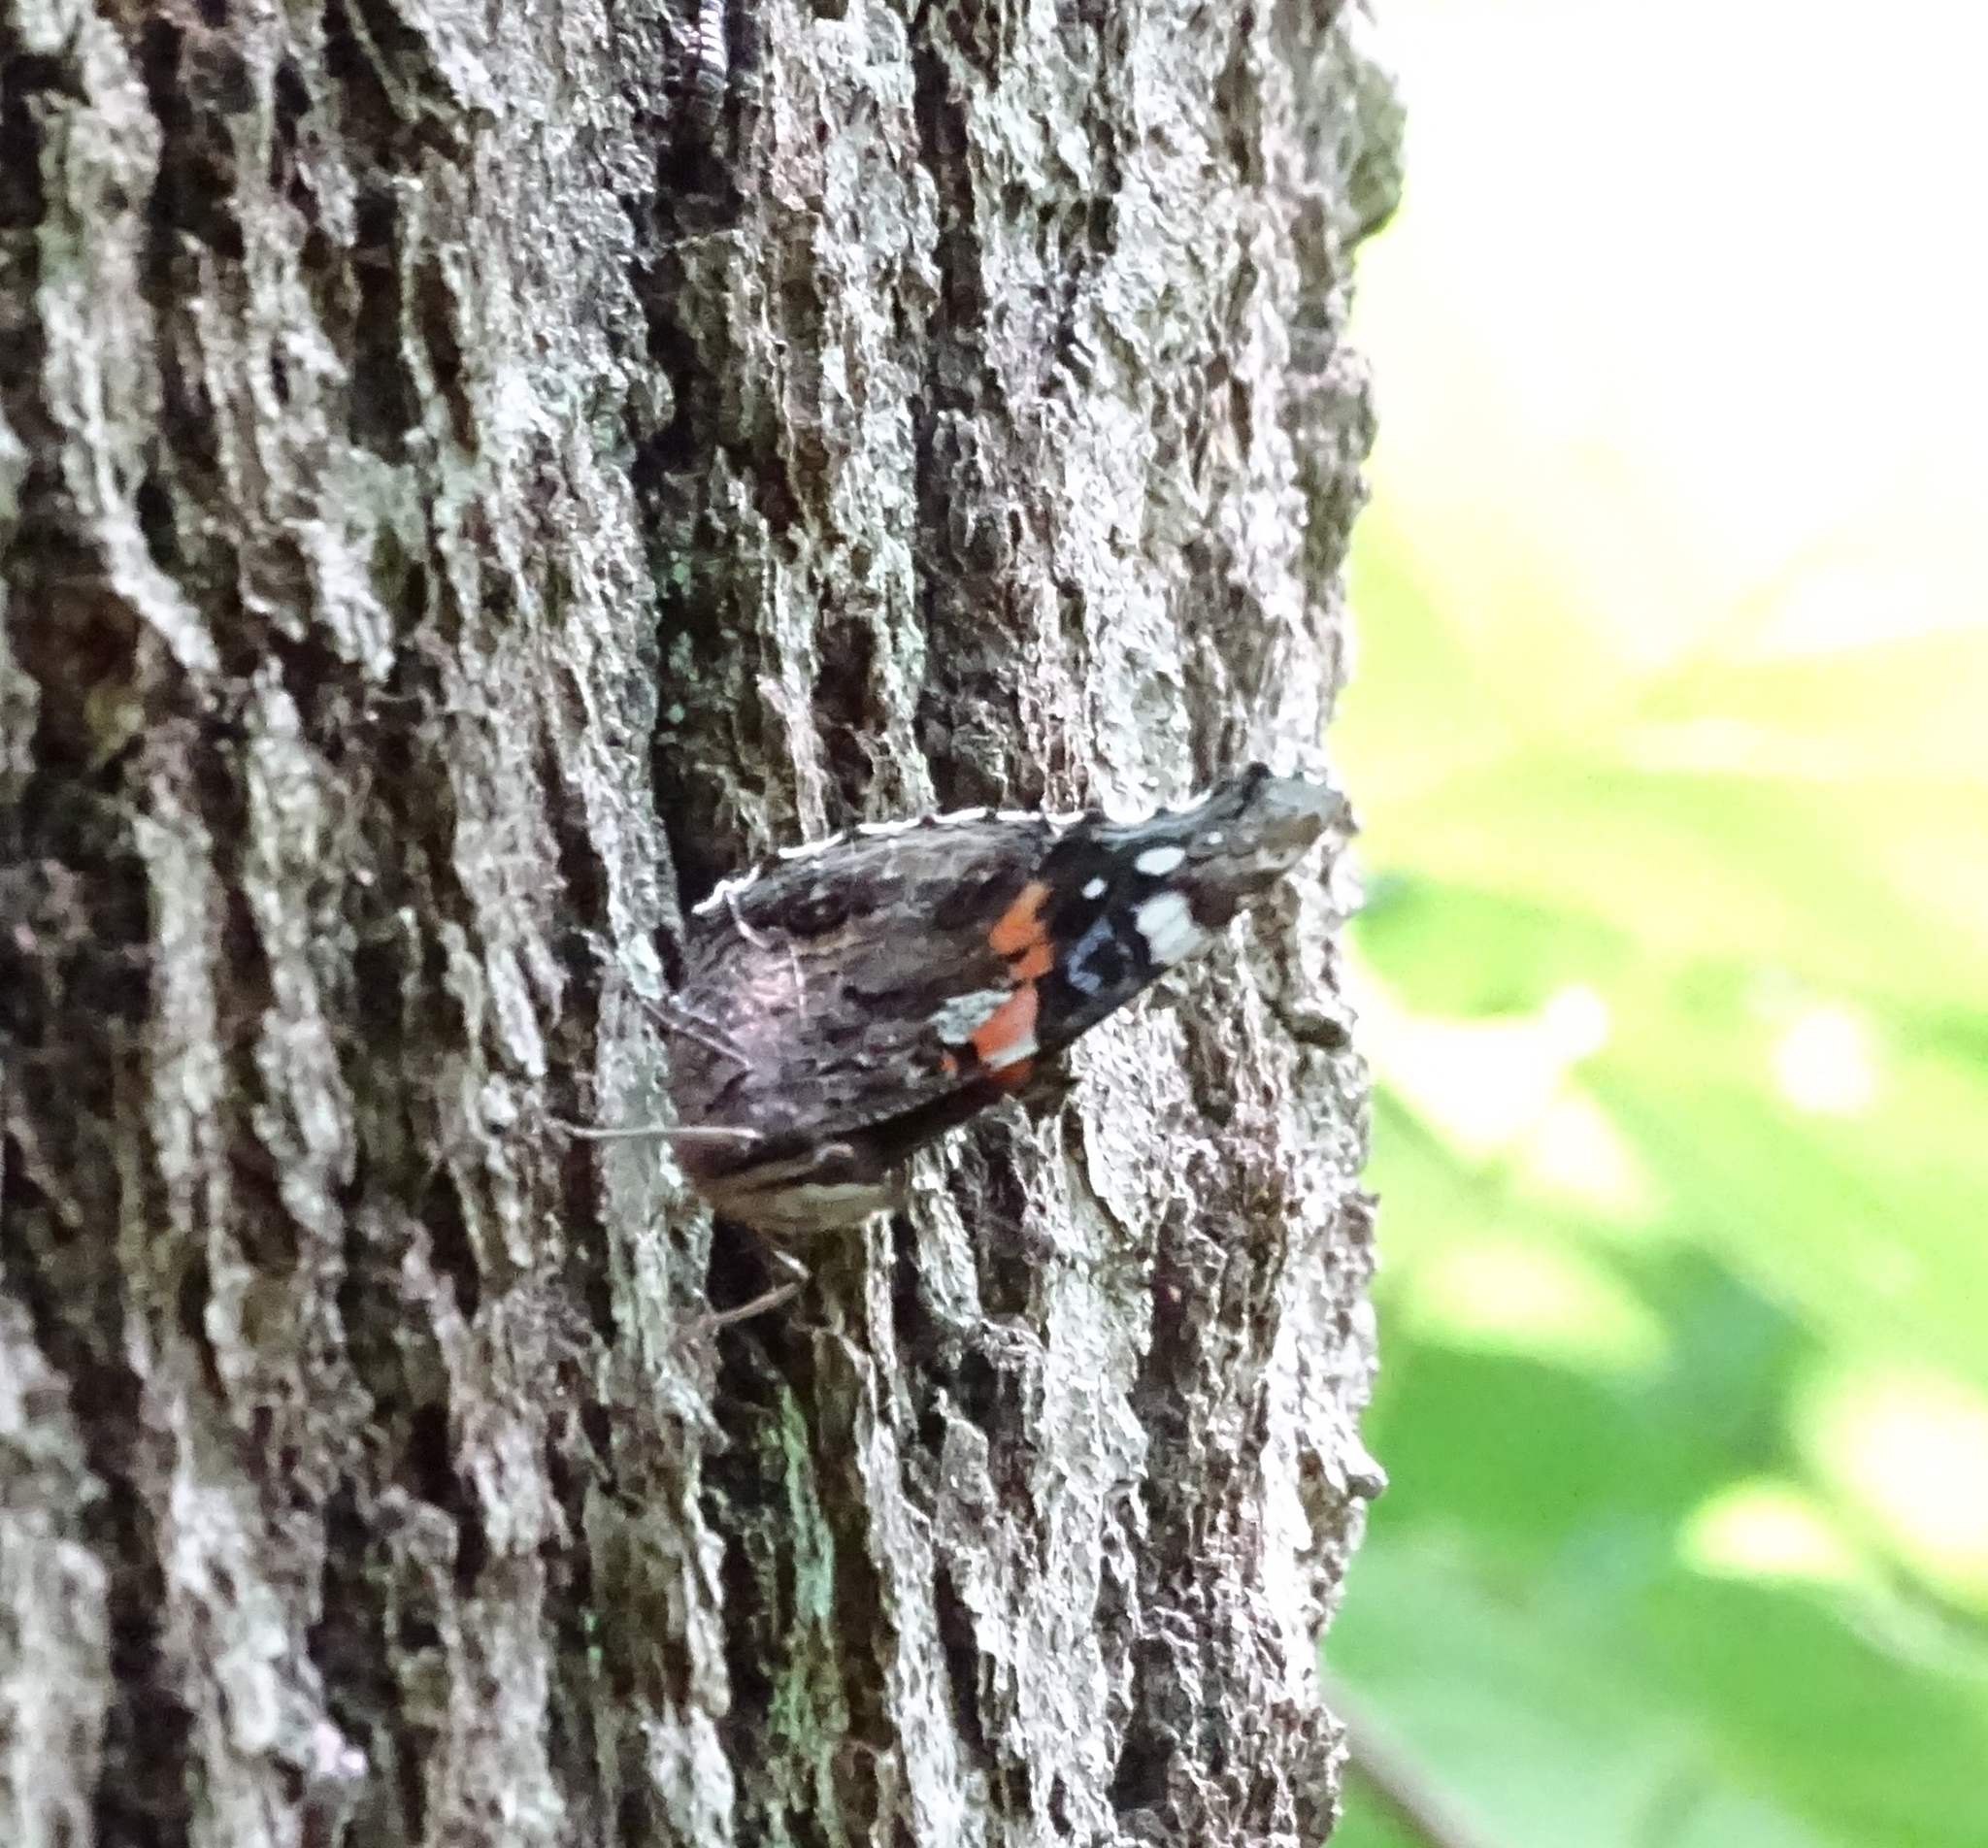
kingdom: Animalia
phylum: Arthropoda
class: Insecta
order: Lepidoptera
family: Nymphalidae
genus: Vanessa
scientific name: Vanessa atalanta
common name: Red admiral
